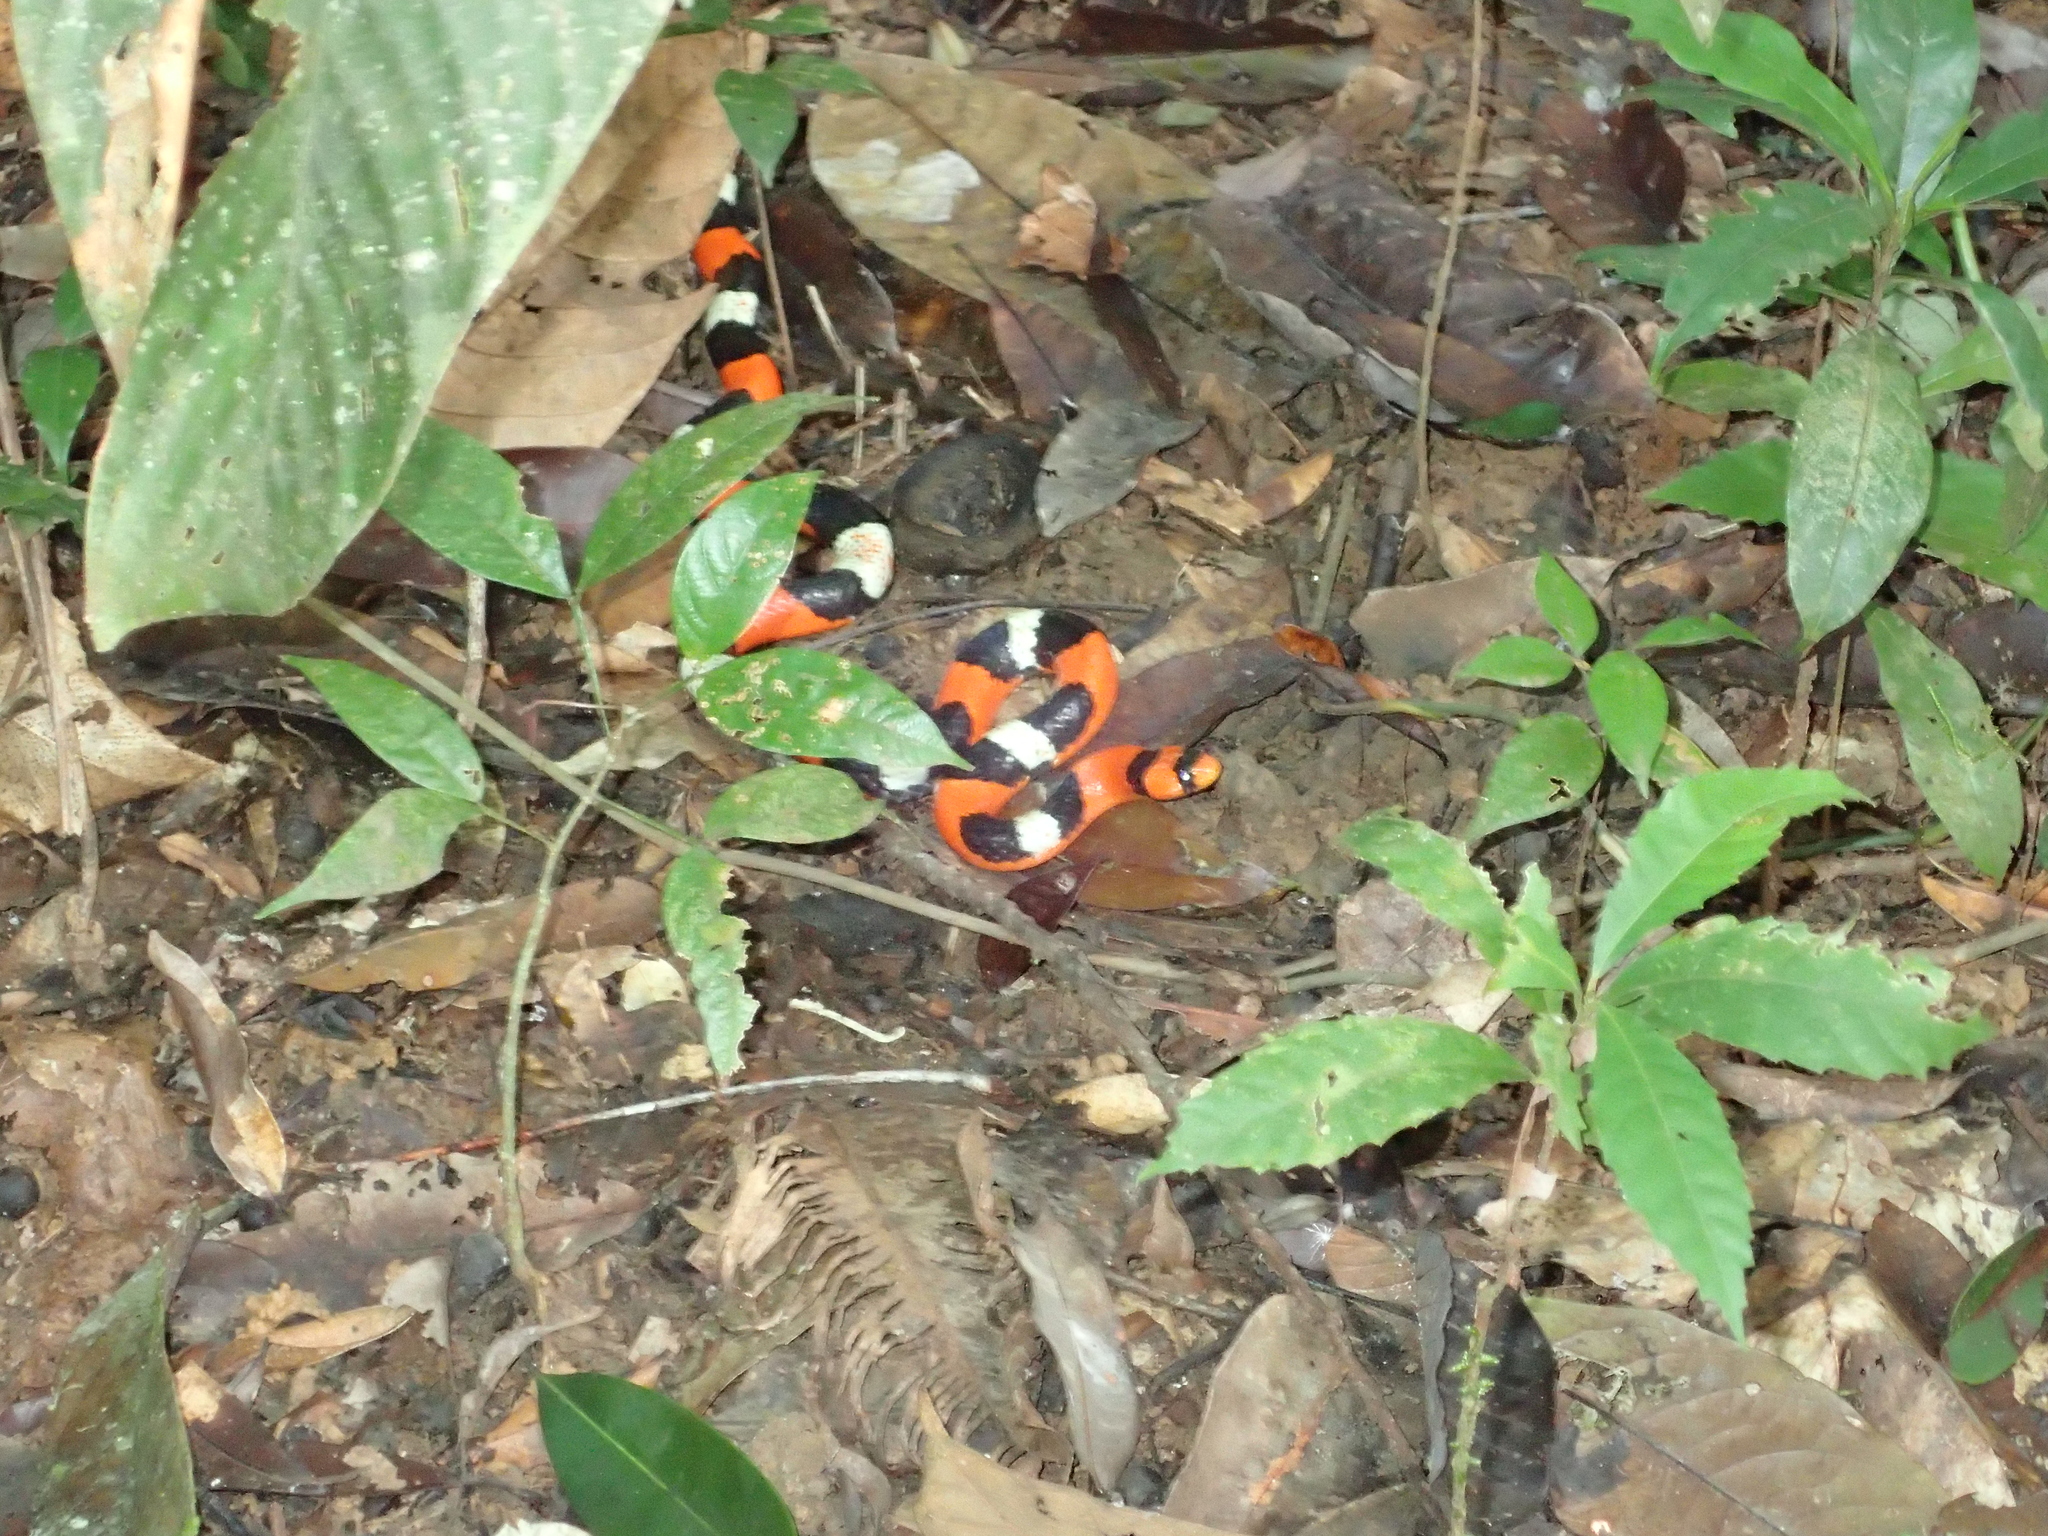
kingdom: Animalia
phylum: Chordata
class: Squamata
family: Colubridae
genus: Erythrolamprus
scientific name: Erythrolamprus aesculapii
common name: Aesculapian false coral snake
